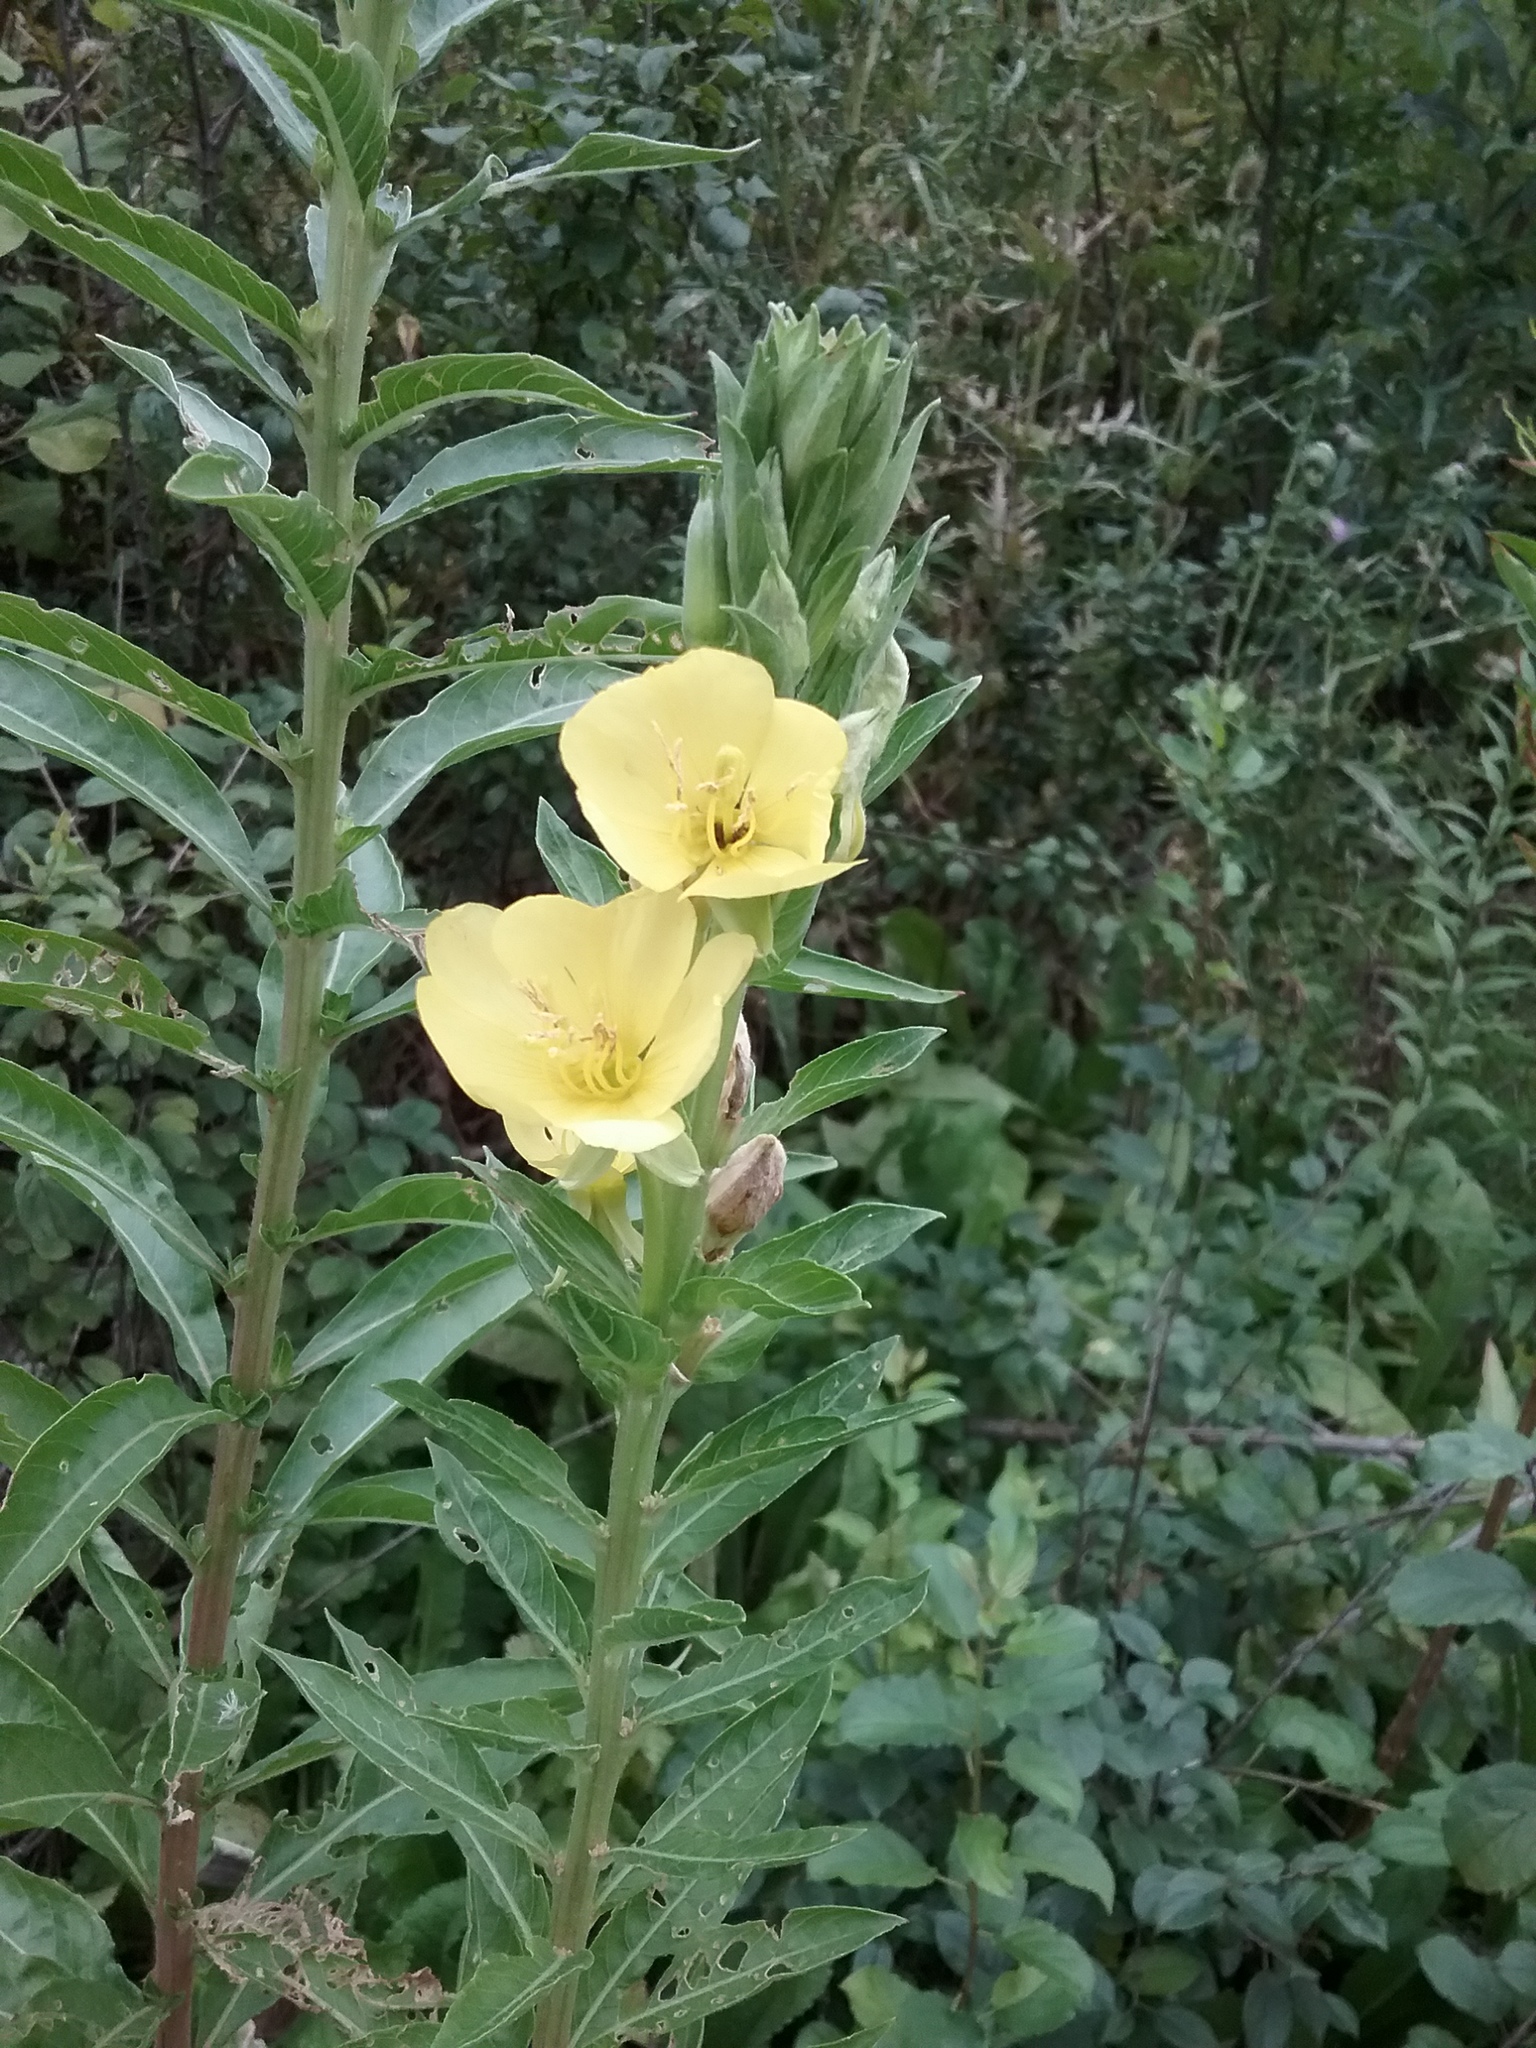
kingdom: Plantae
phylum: Tracheophyta
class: Magnoliopsida
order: Myrtales
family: Onagraceae
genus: Oenothera
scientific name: Oenothera biennis
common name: Common evening-primrose
